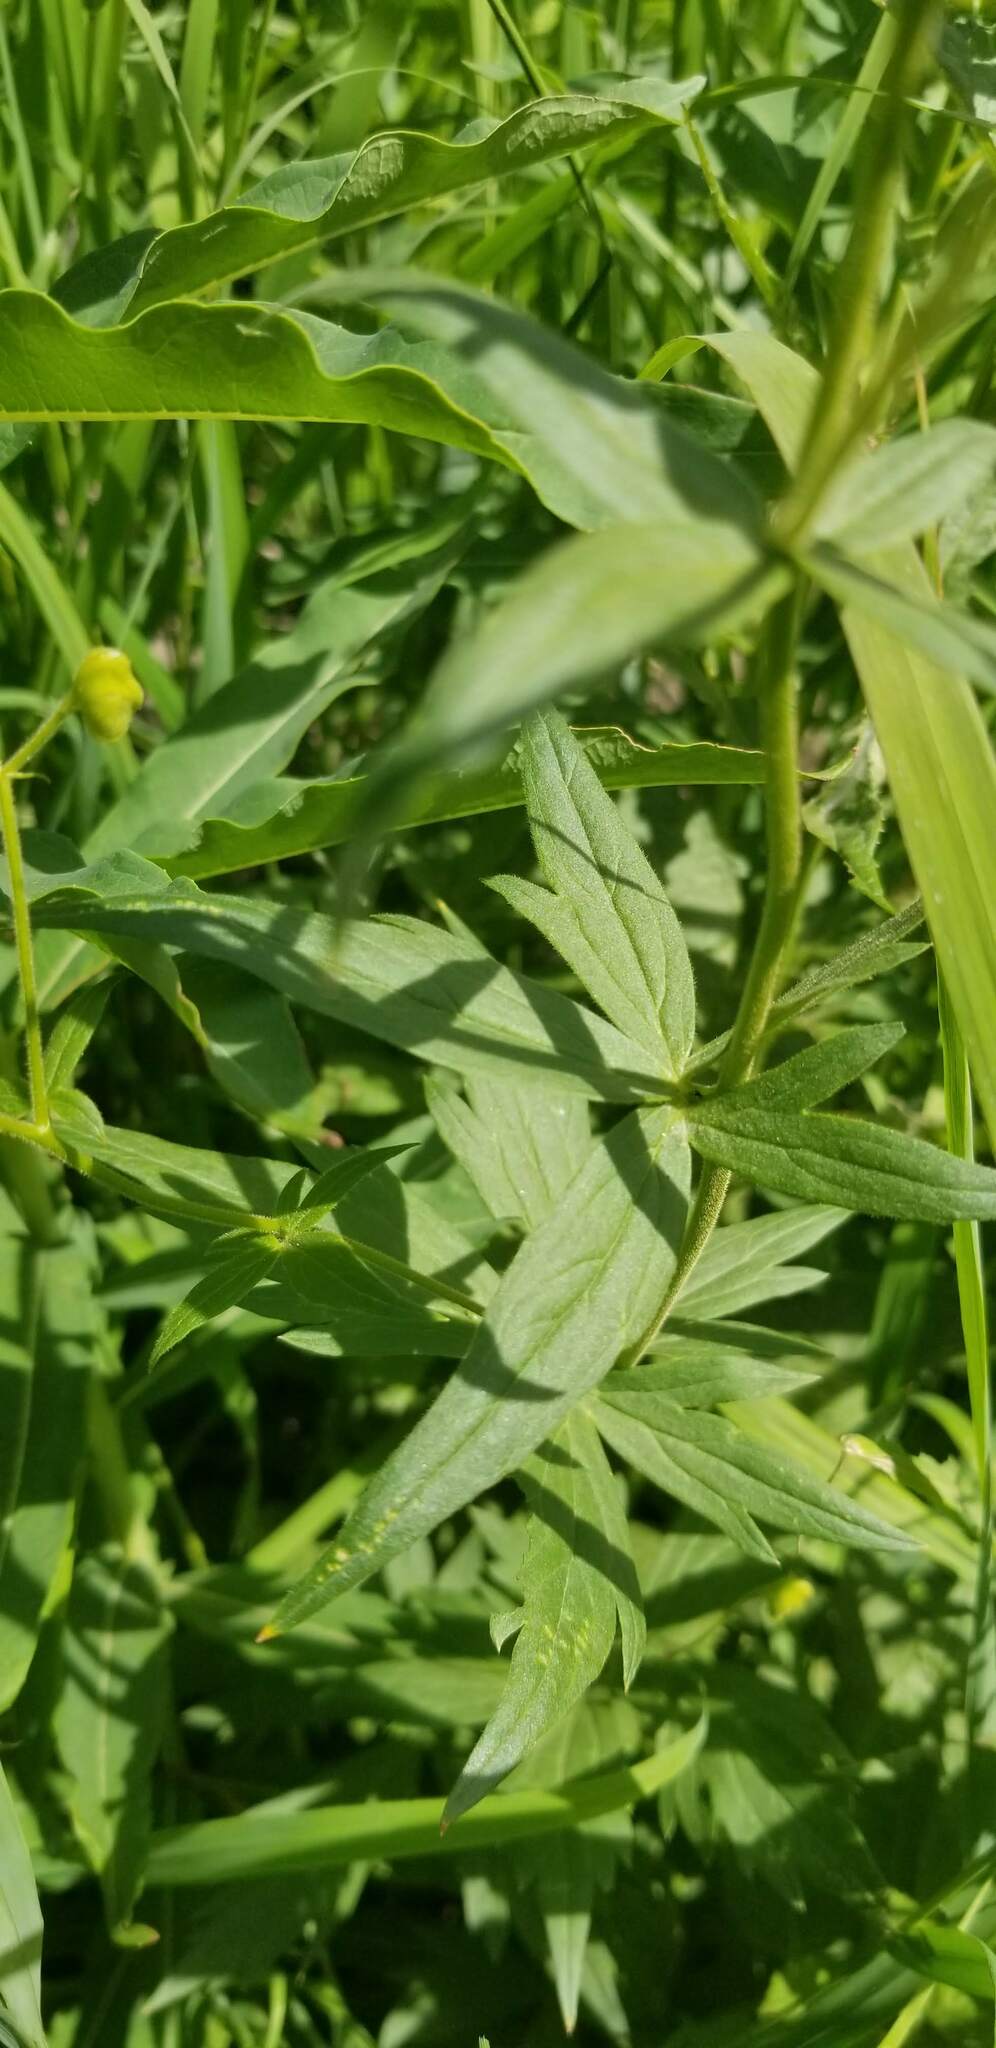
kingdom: Plantae
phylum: Tracheophyta
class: Magnoliopsida
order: Ranunculales
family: Ranunculaceae
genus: Aconitum
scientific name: Aconitum columbianum
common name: Columbia aconite
